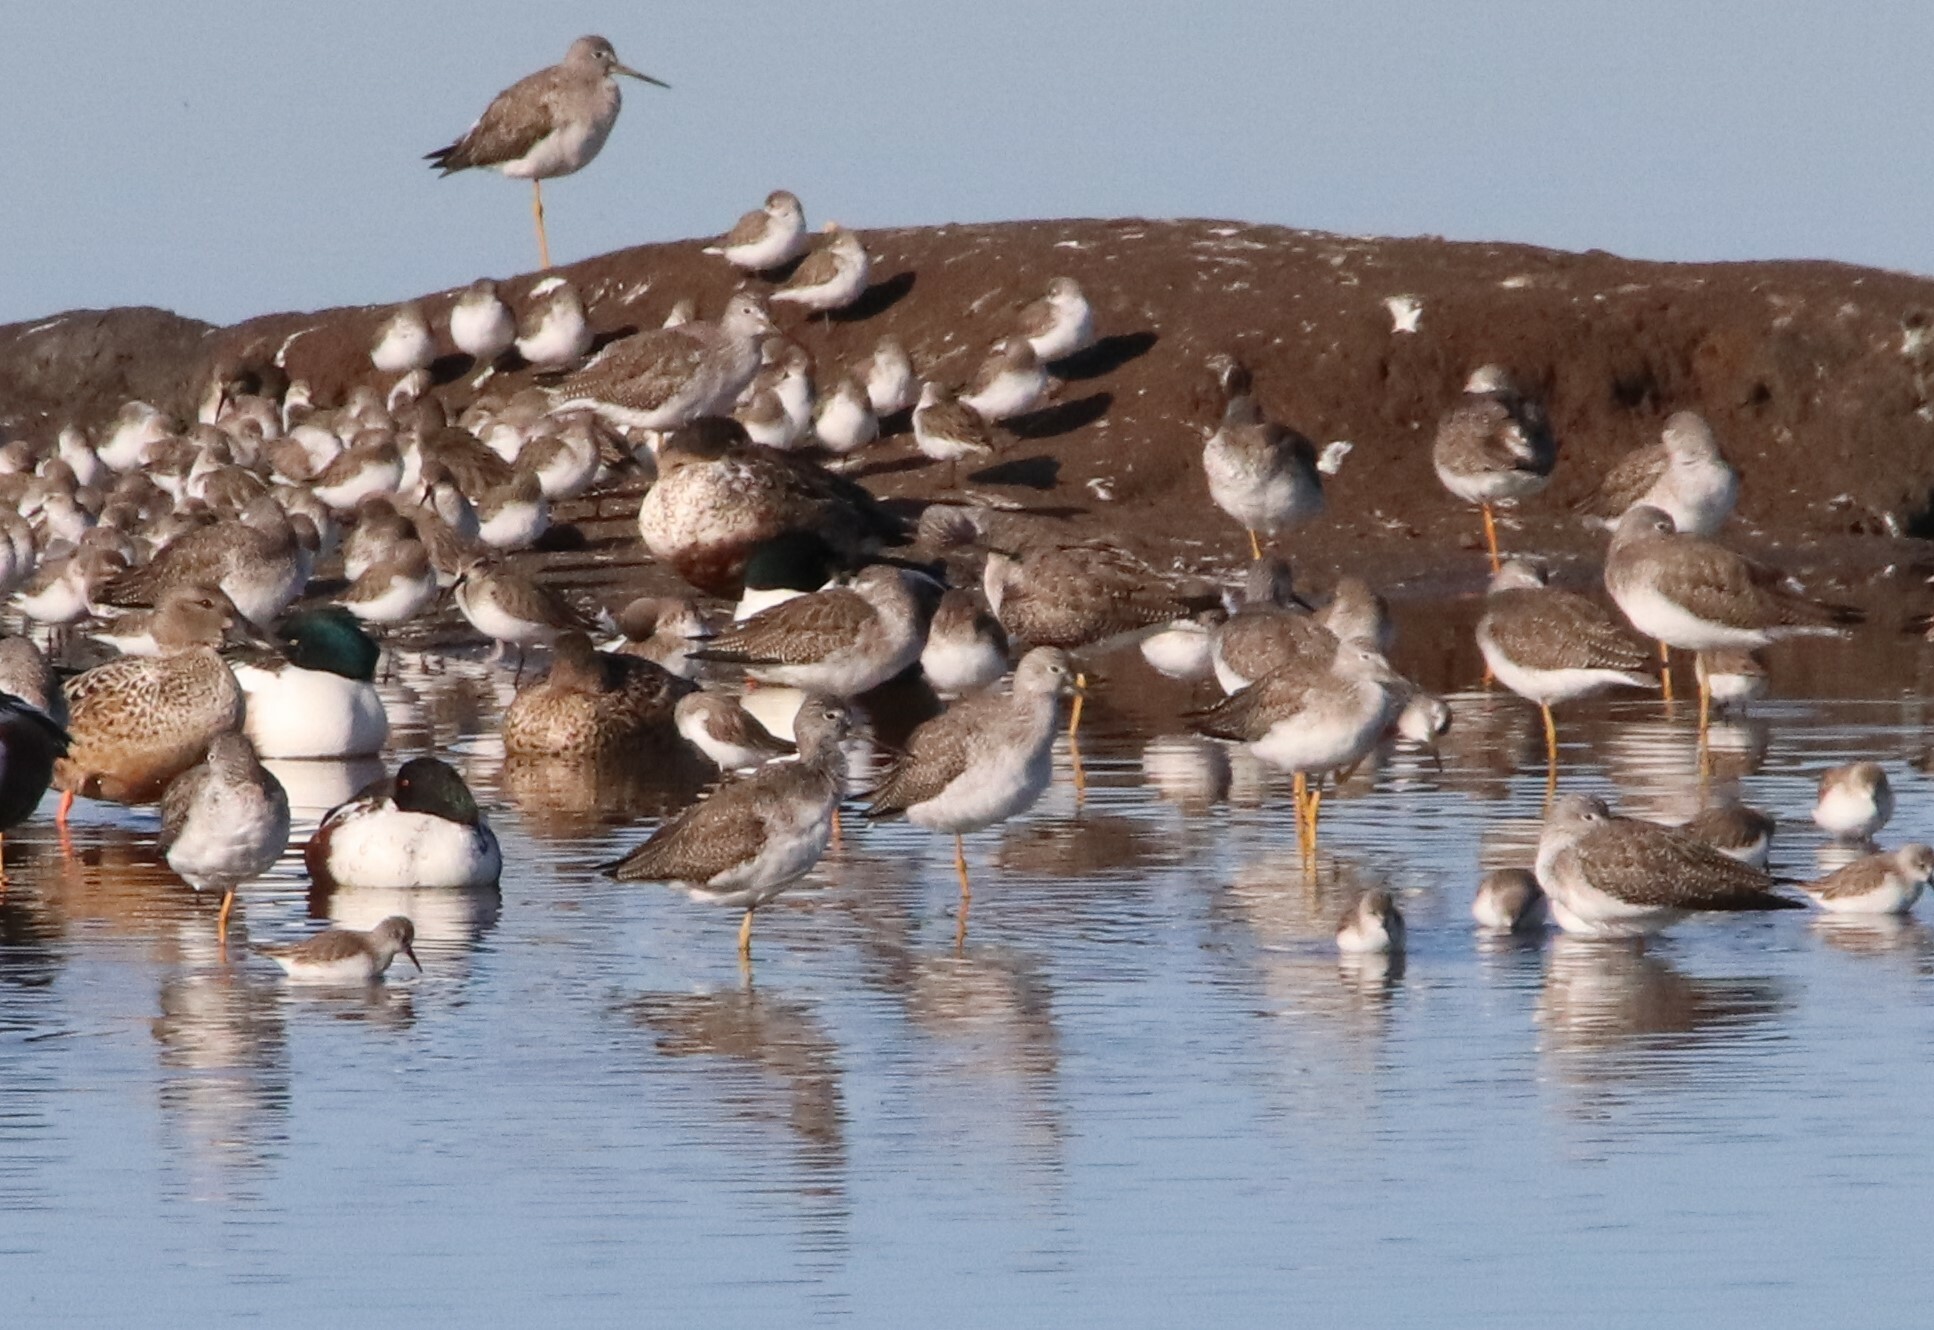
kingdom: Animalia
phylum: Chordata
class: Aves
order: Charadriiformes
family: Scolopacidae
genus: Tringa
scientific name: Tringa melanoleuca
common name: Greater yellowlegs
